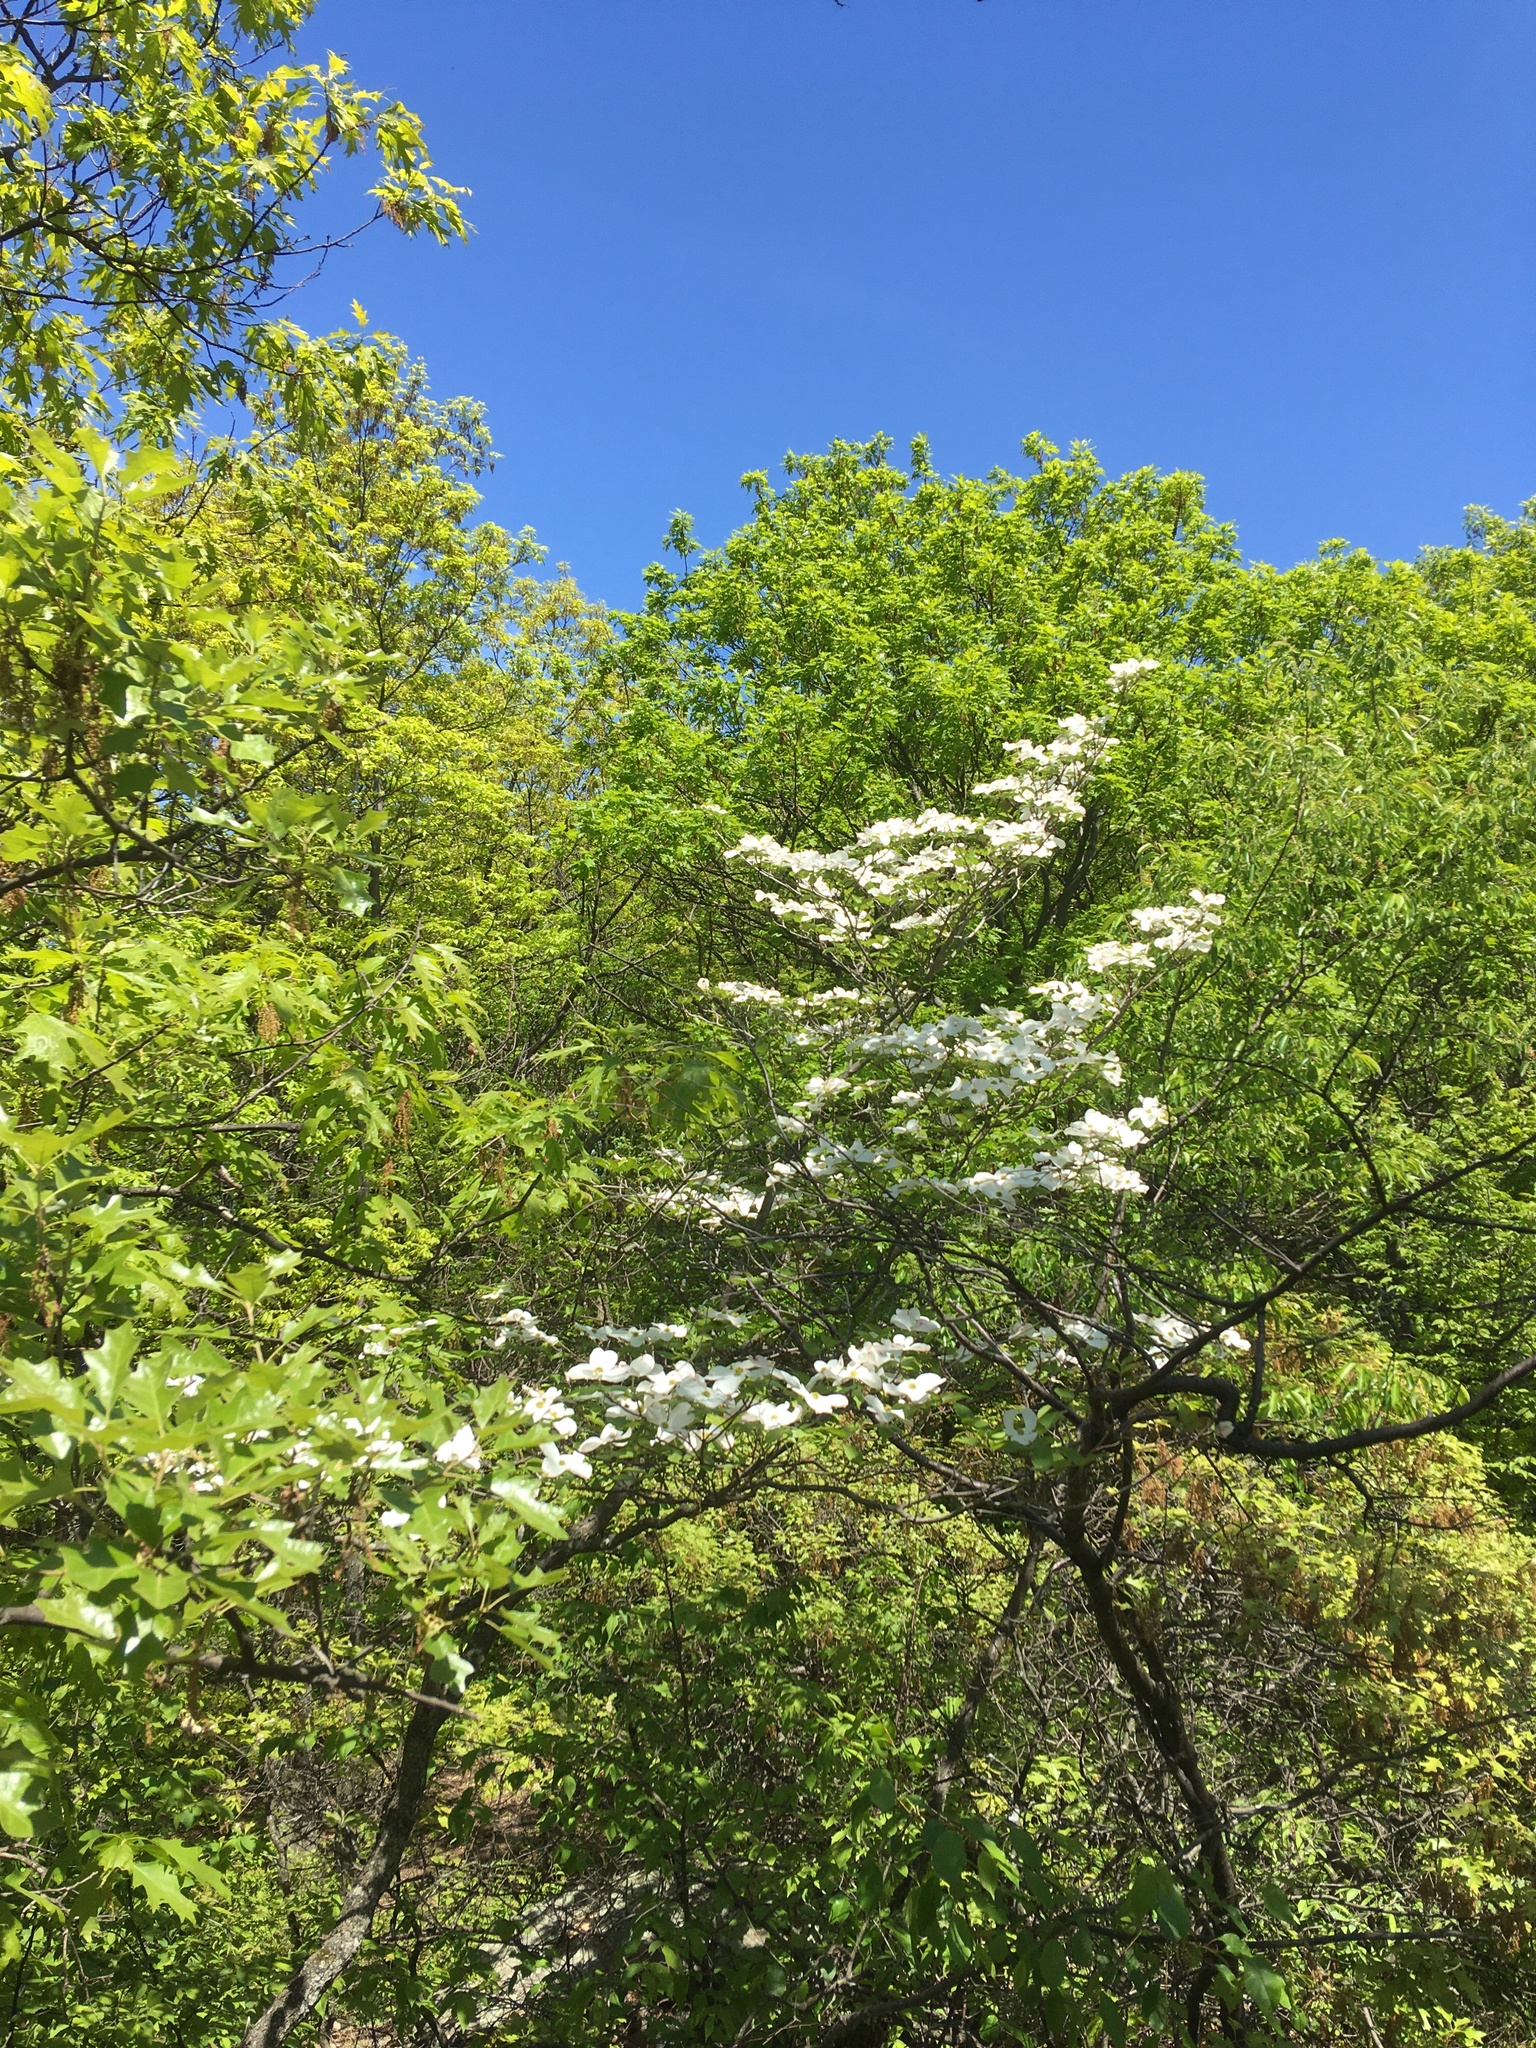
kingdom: Plantae
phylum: Tracheophyta
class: Magnoliopsida
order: Cornales
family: Cornaceae
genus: Cornus
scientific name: Cornus florida
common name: Flowering dogwood
